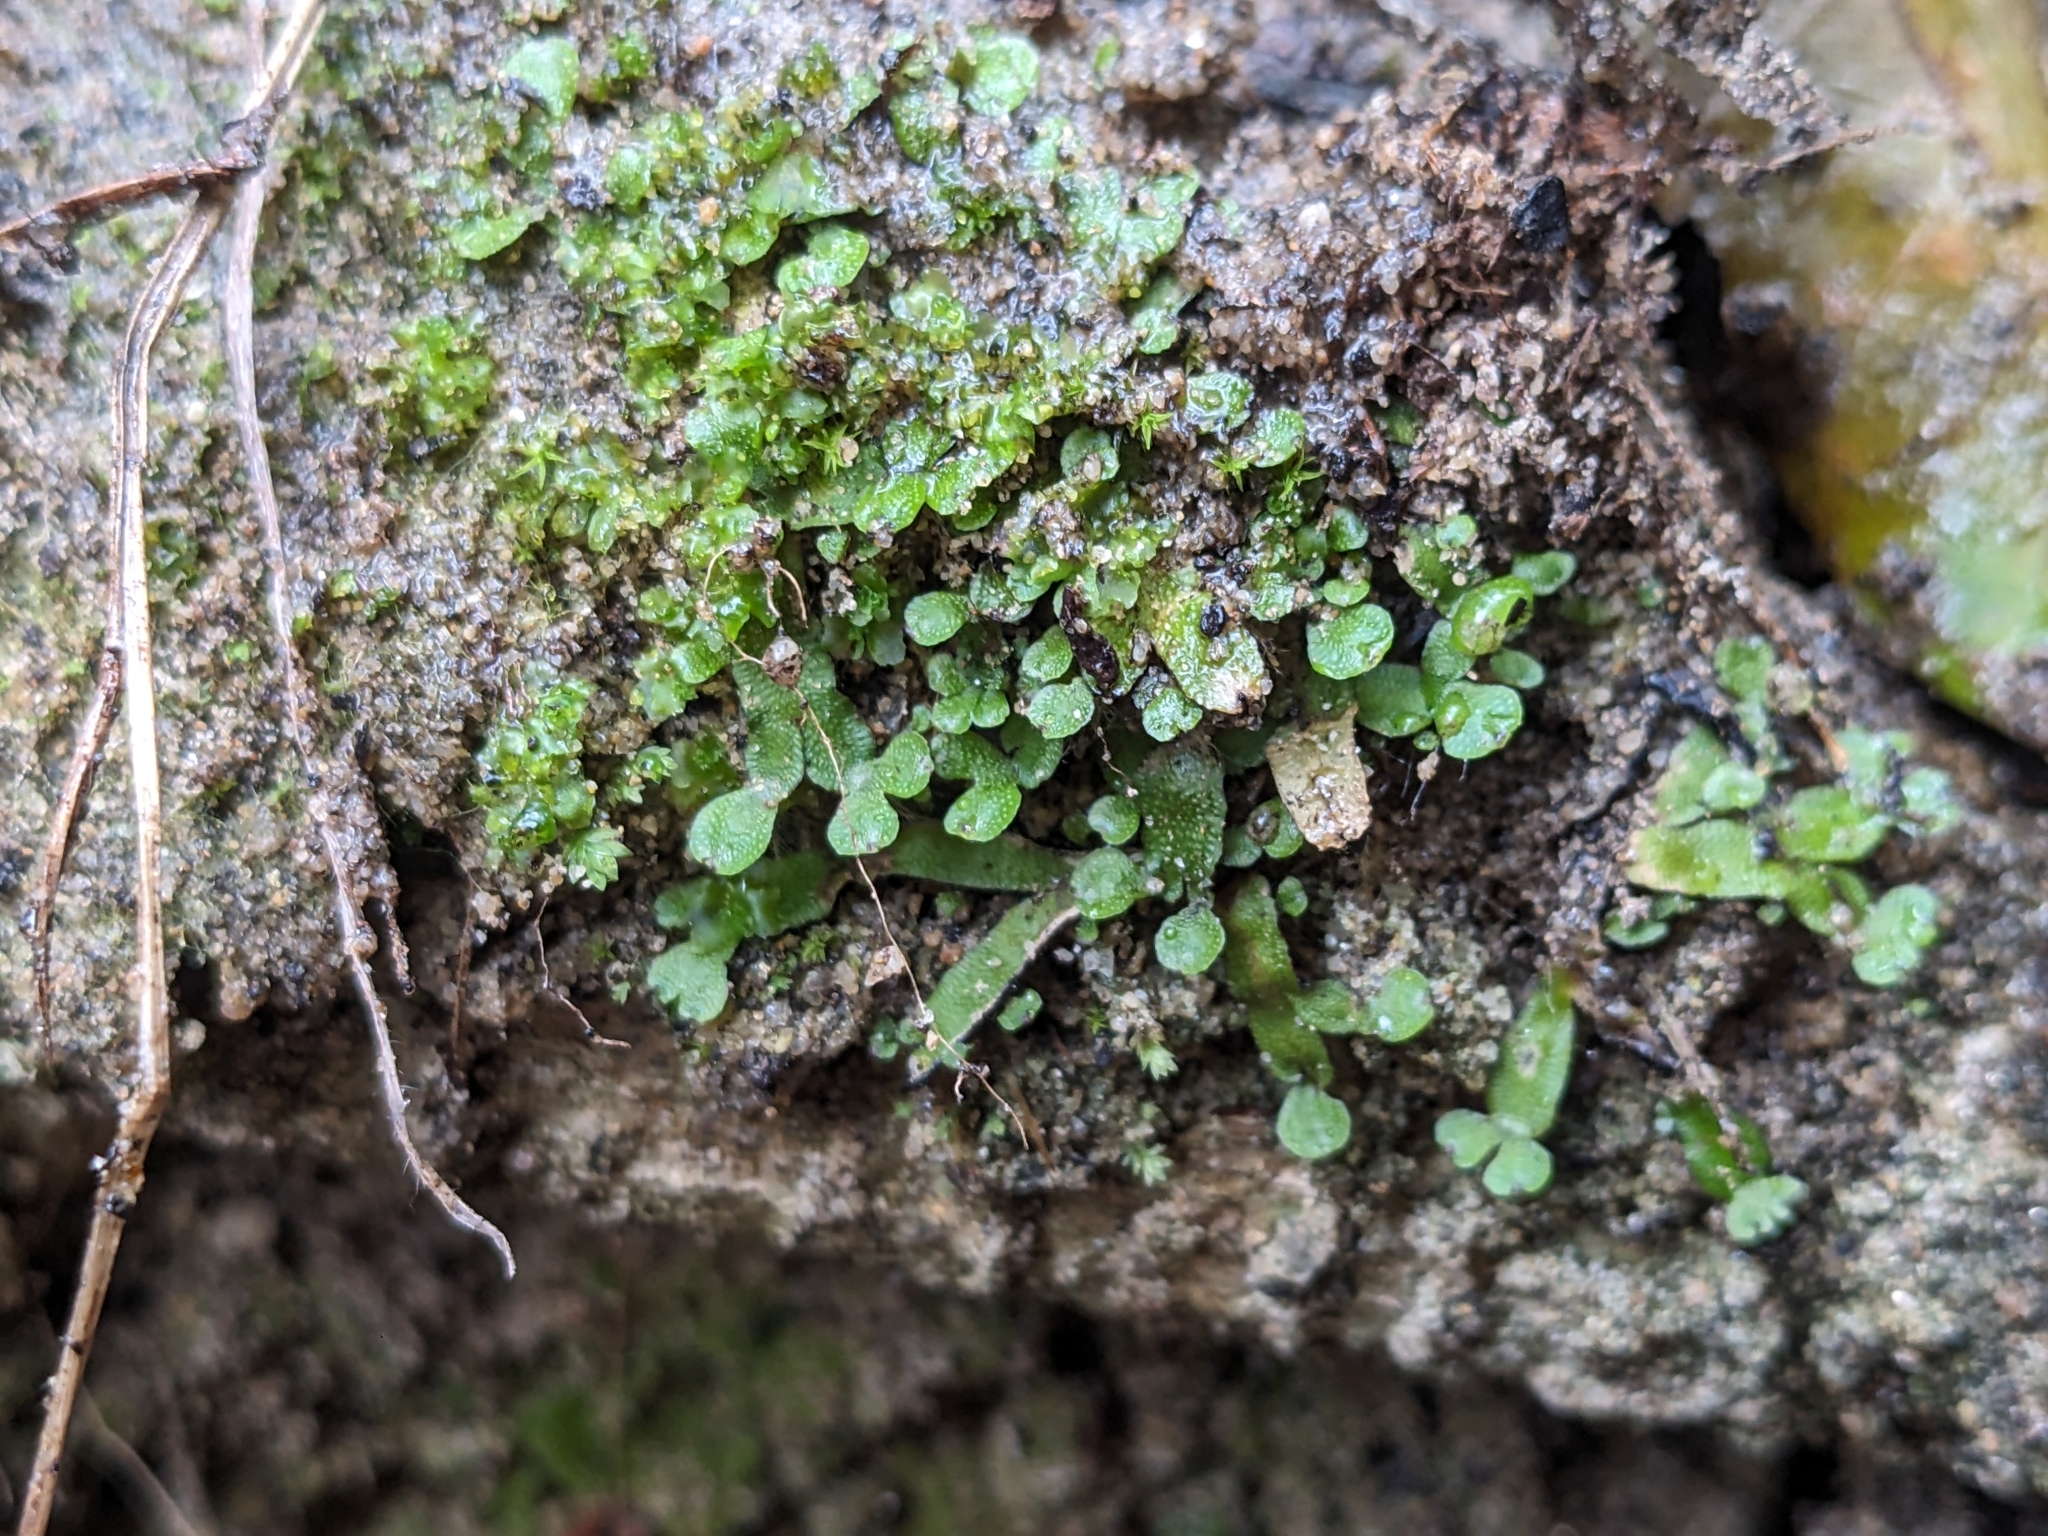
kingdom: Plantae
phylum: Marchantiophyta
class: Marchantiopsida
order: Marchantiales
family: Targioniaceae
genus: Targionia
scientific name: Targionia hypophylla
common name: Orobus-seed liverwort
